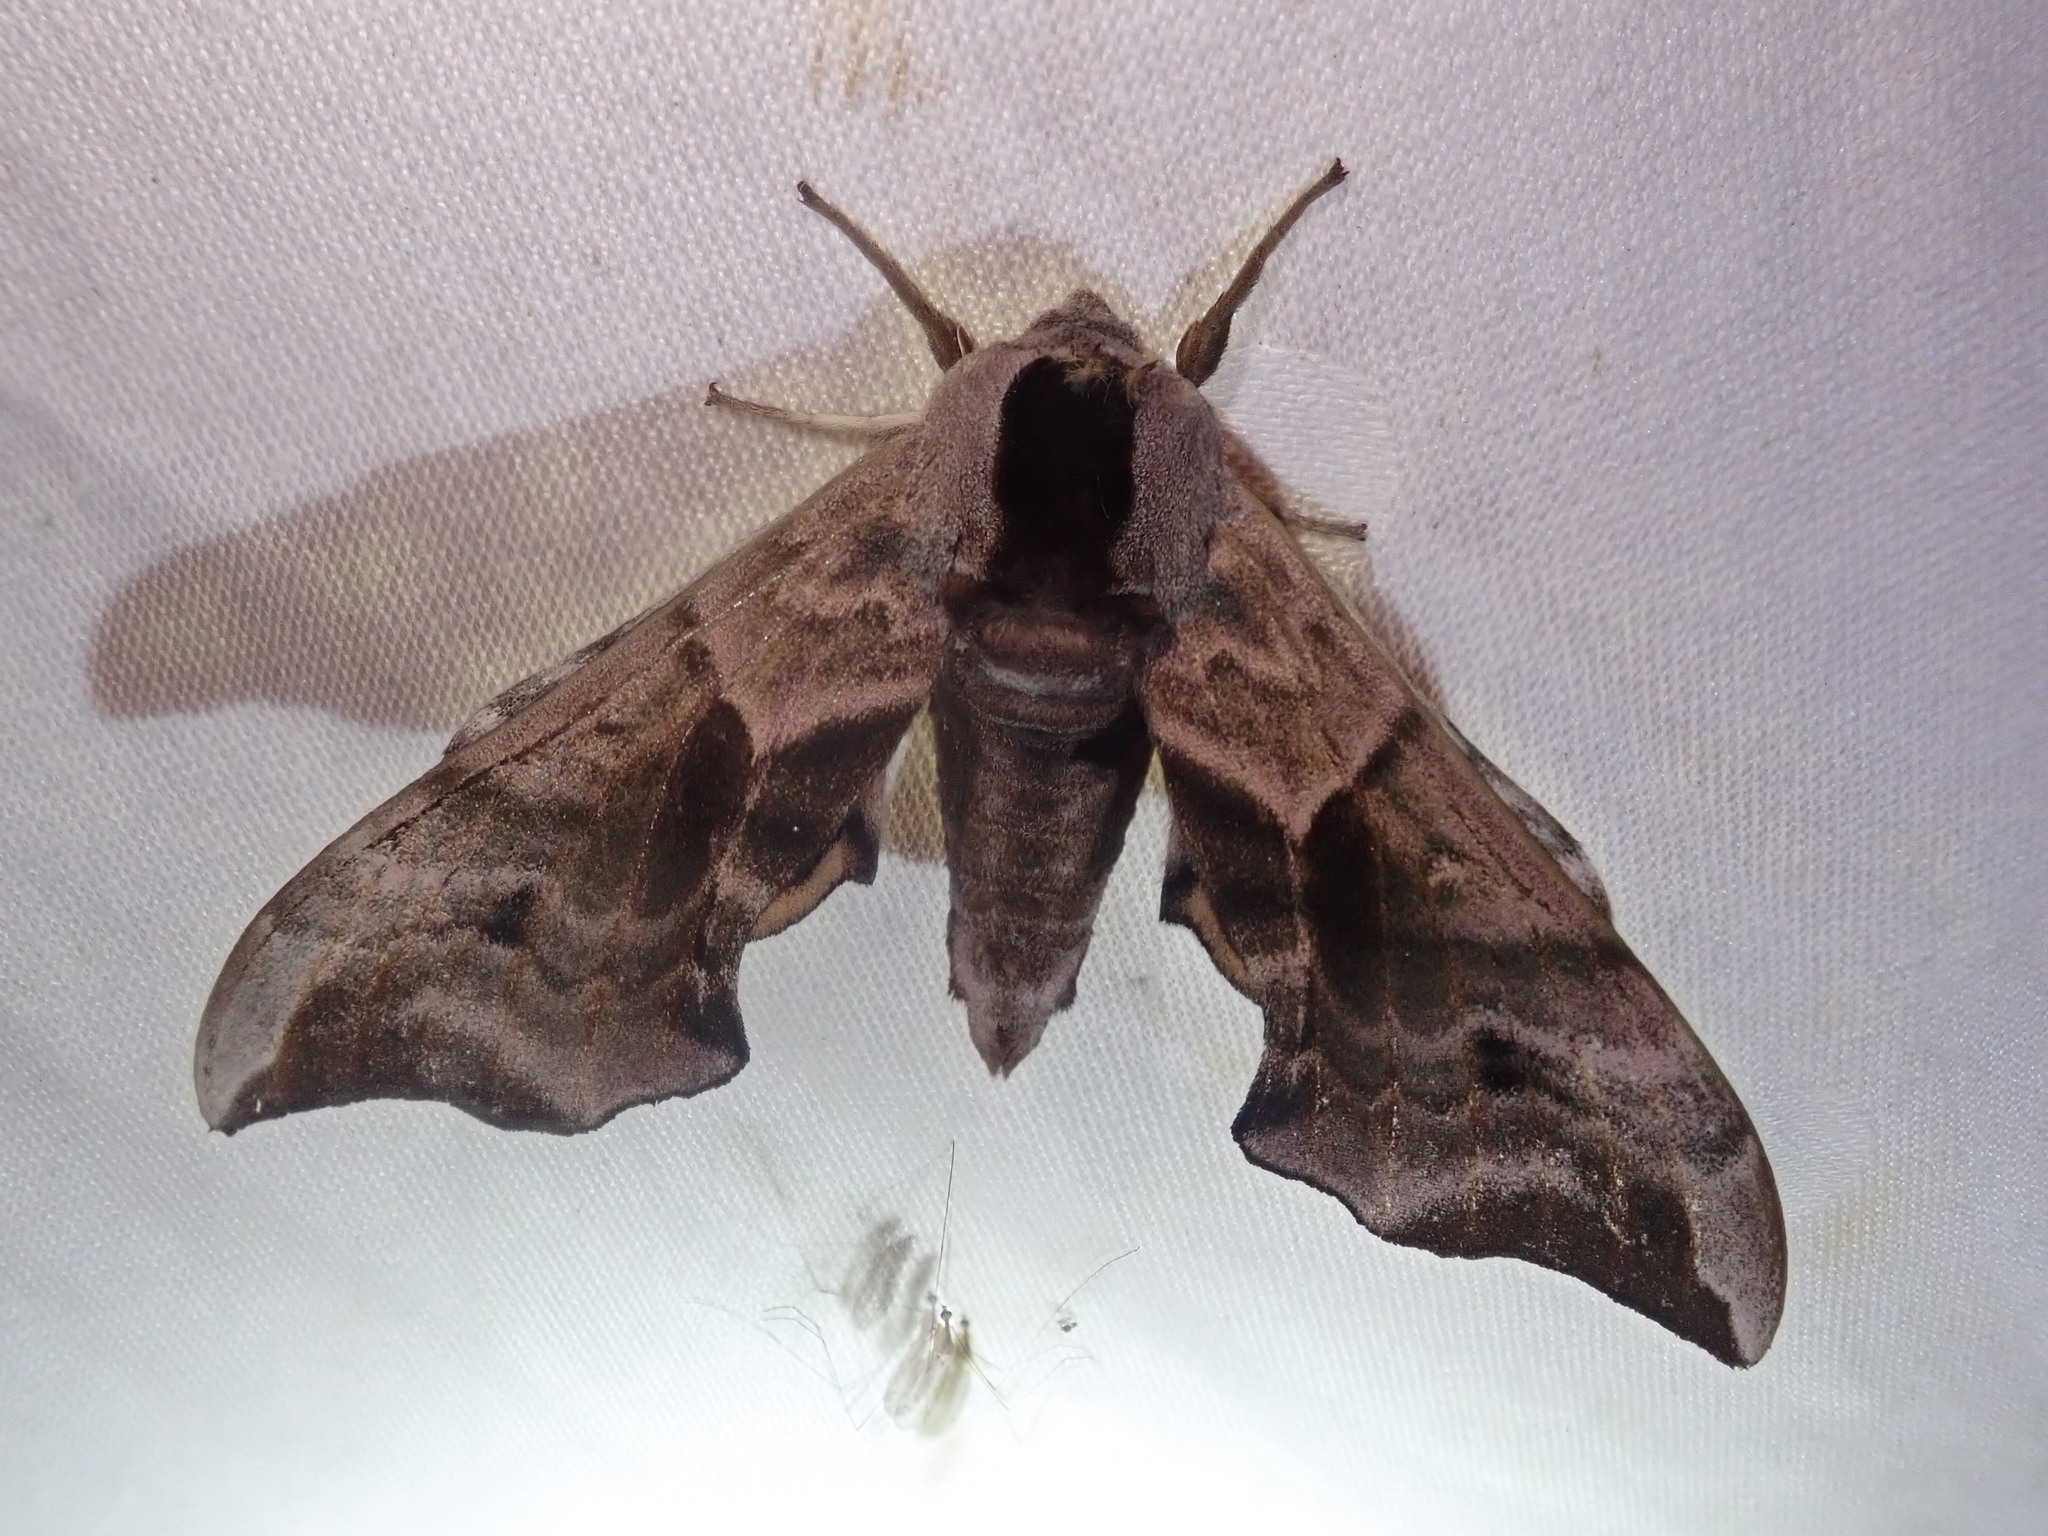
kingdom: Animalia
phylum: Arthropoda
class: Insecta
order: Lepidoptera
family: Sphingidae
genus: Smerinthus
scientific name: Smerinthus ocellata
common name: Eyed hawk-moth
